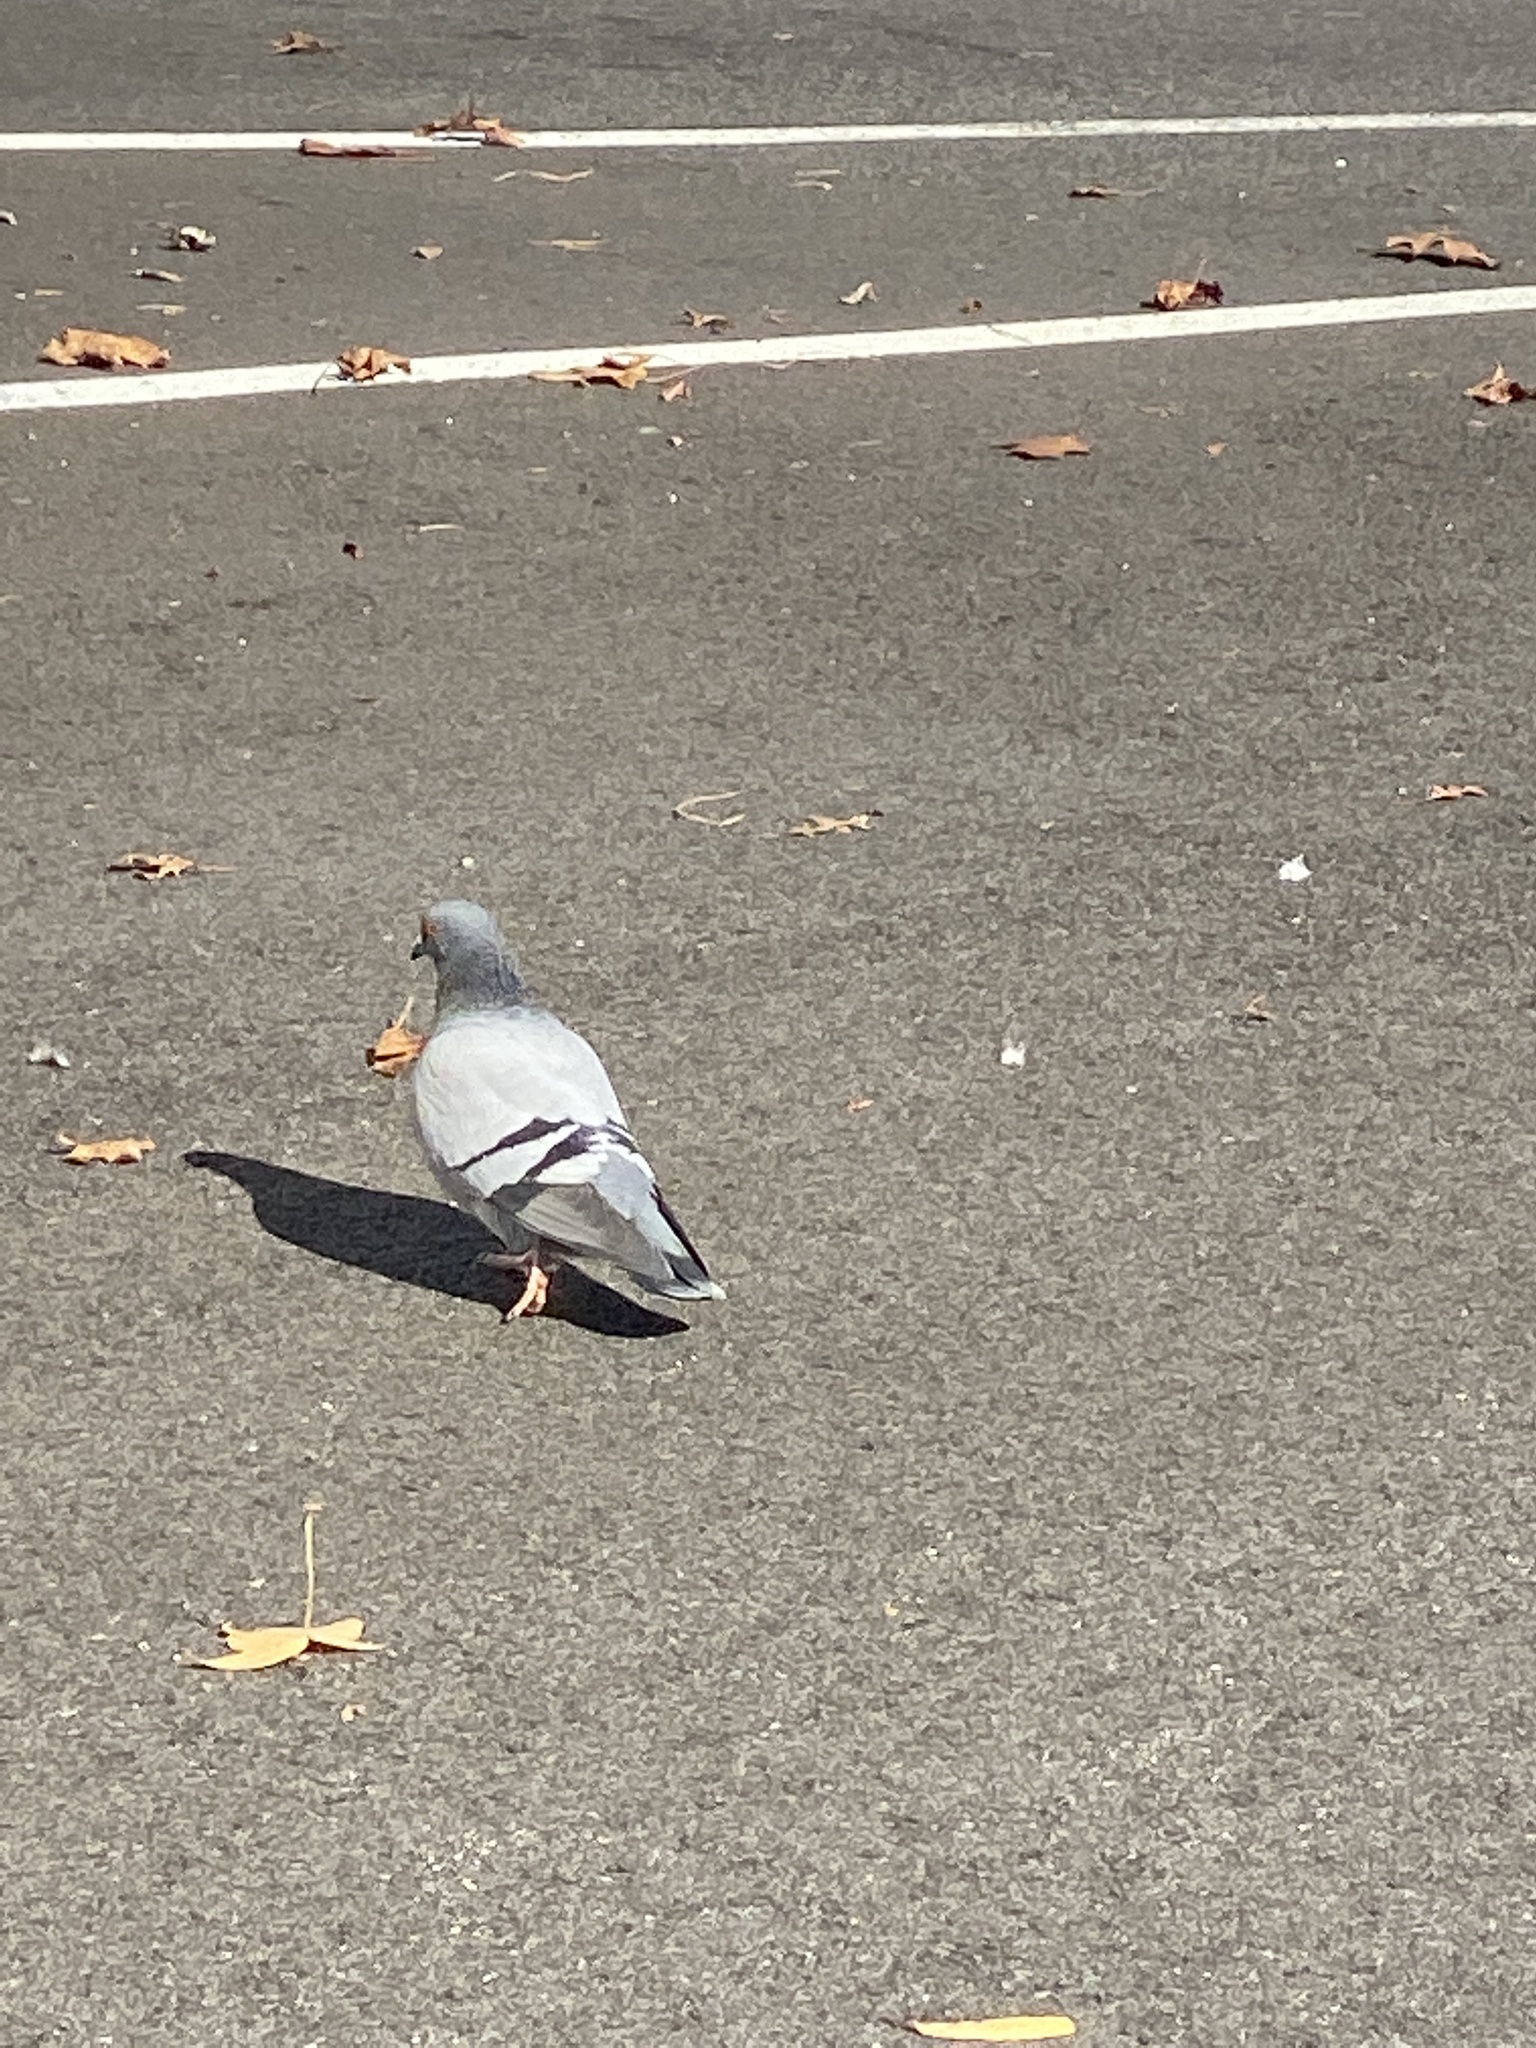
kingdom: Animalia
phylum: Chordata
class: Aves
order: Columbiformes
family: Columbidae
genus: Columba
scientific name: Columba livia
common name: Rock pigeon
